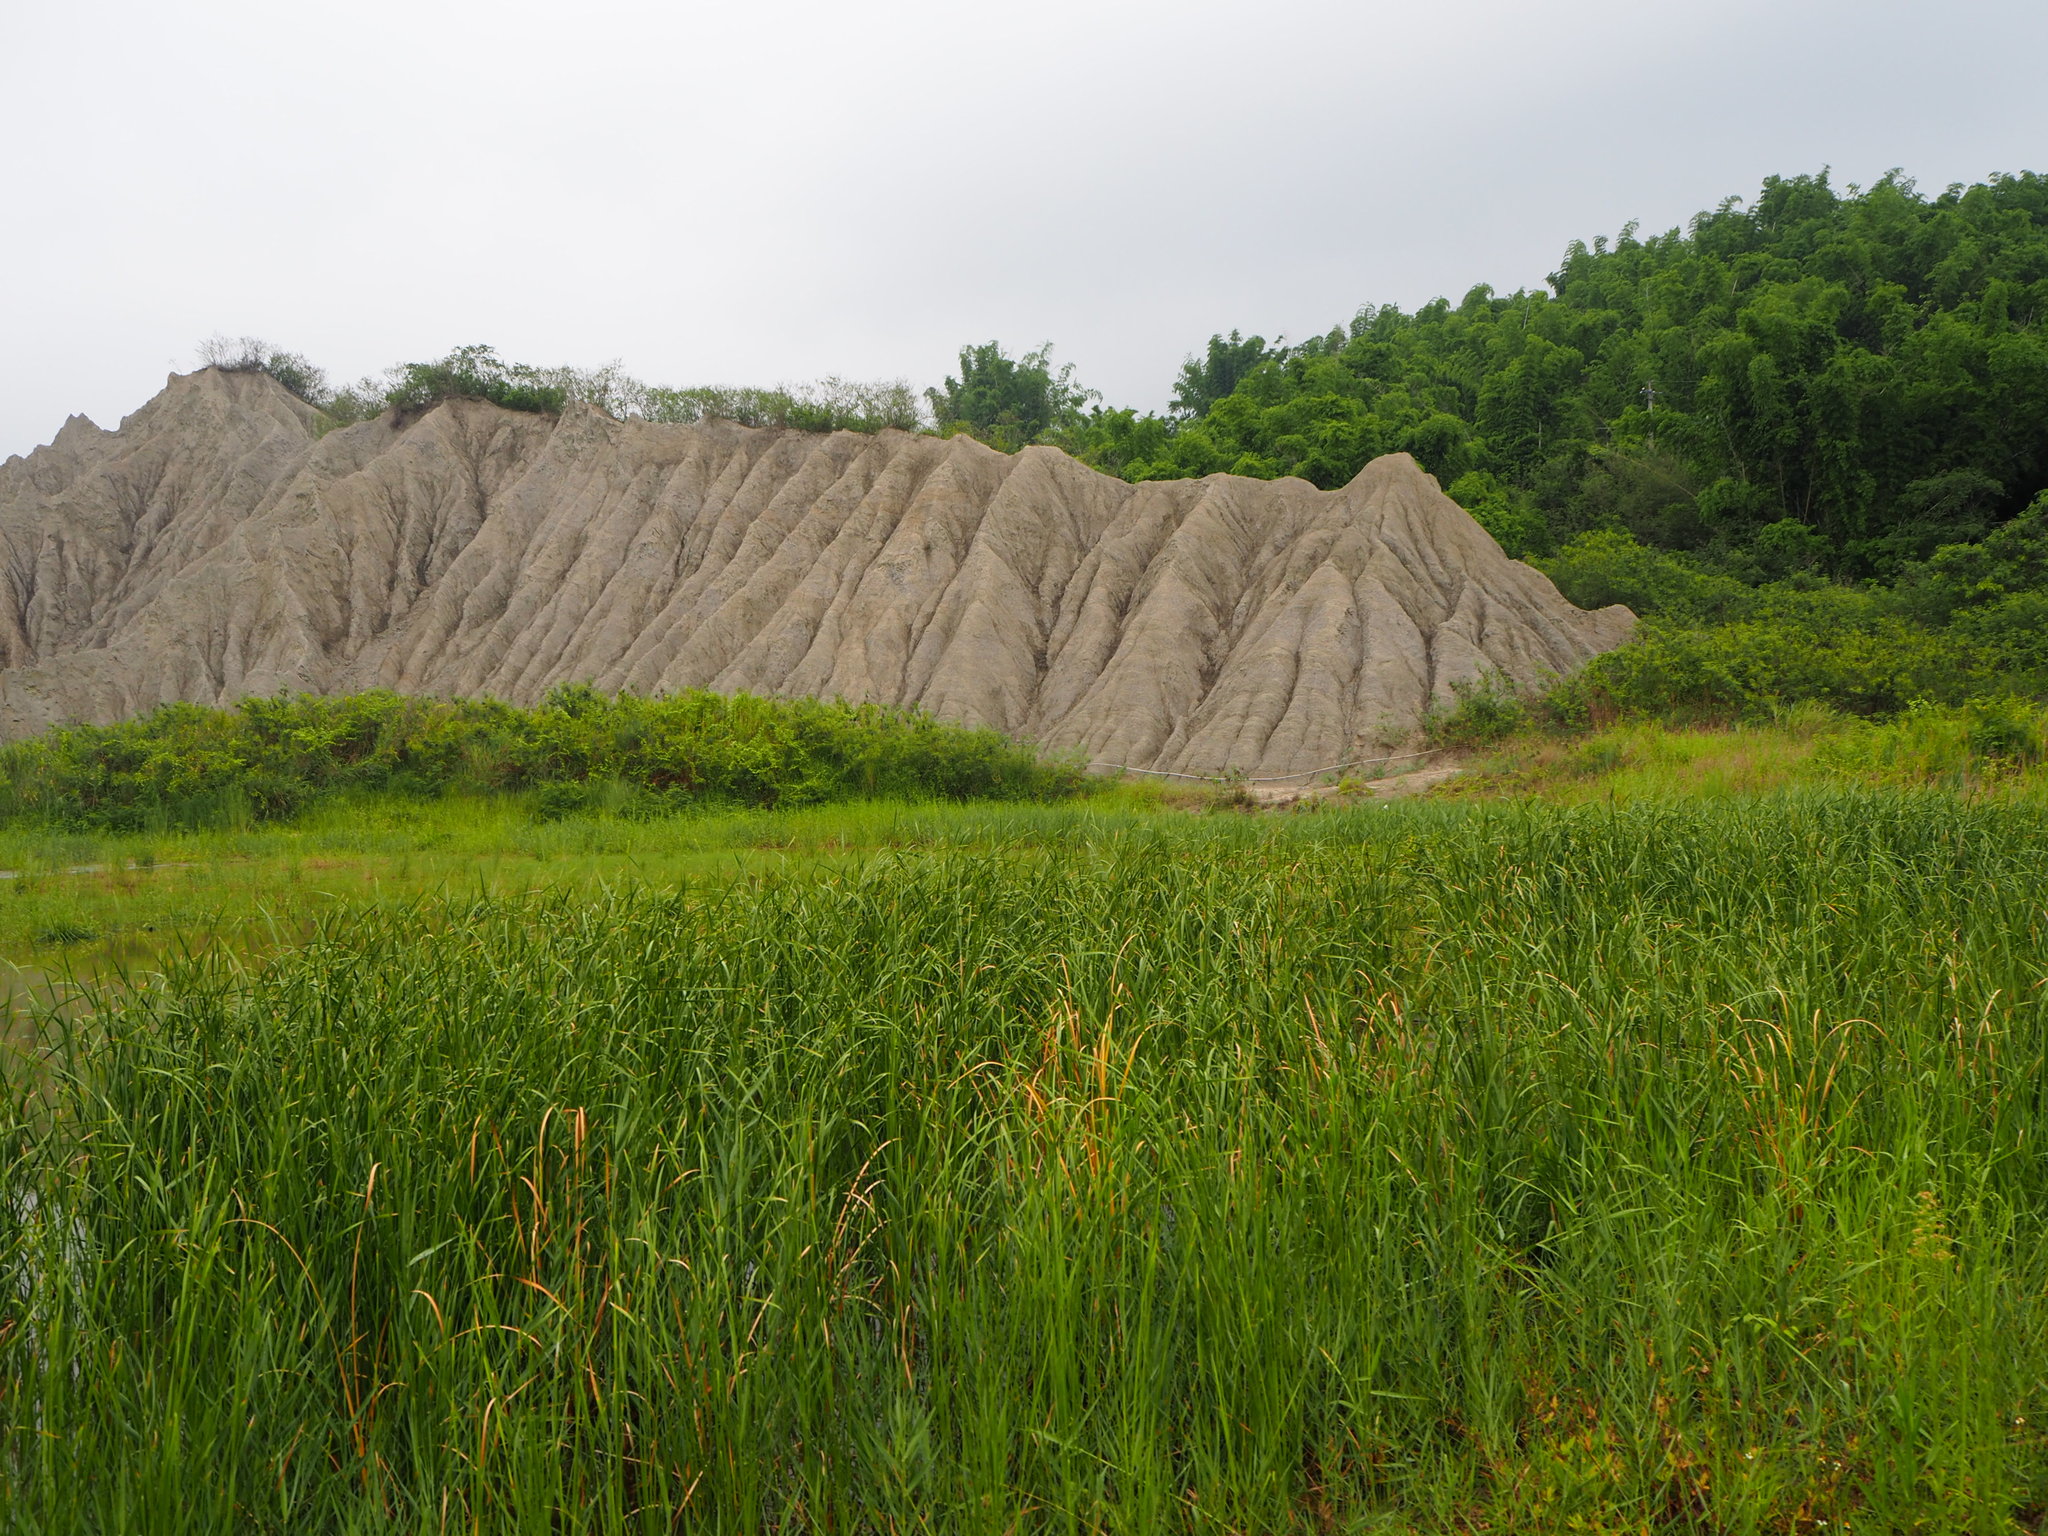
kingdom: Plantae
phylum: Tracheophyta
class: Liliopsida
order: Poales
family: Typhaceae
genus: Typha
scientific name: Typha orientalis
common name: Bullrush
